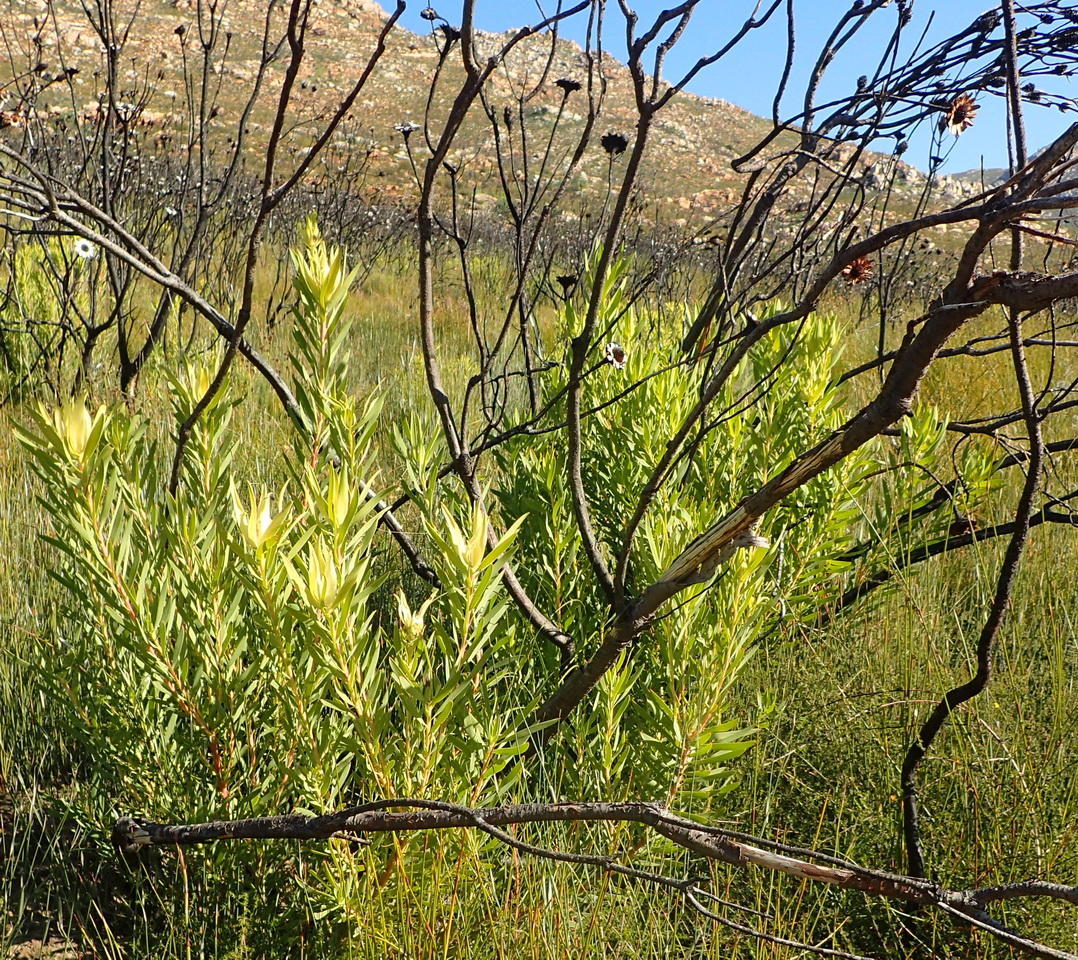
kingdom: Plantae
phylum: Tracheophyta
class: Magnoliopsida
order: Proteales
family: Proteaceae
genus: Leucadendron
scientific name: Leucadendron salignum
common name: Common sunshine conebush
